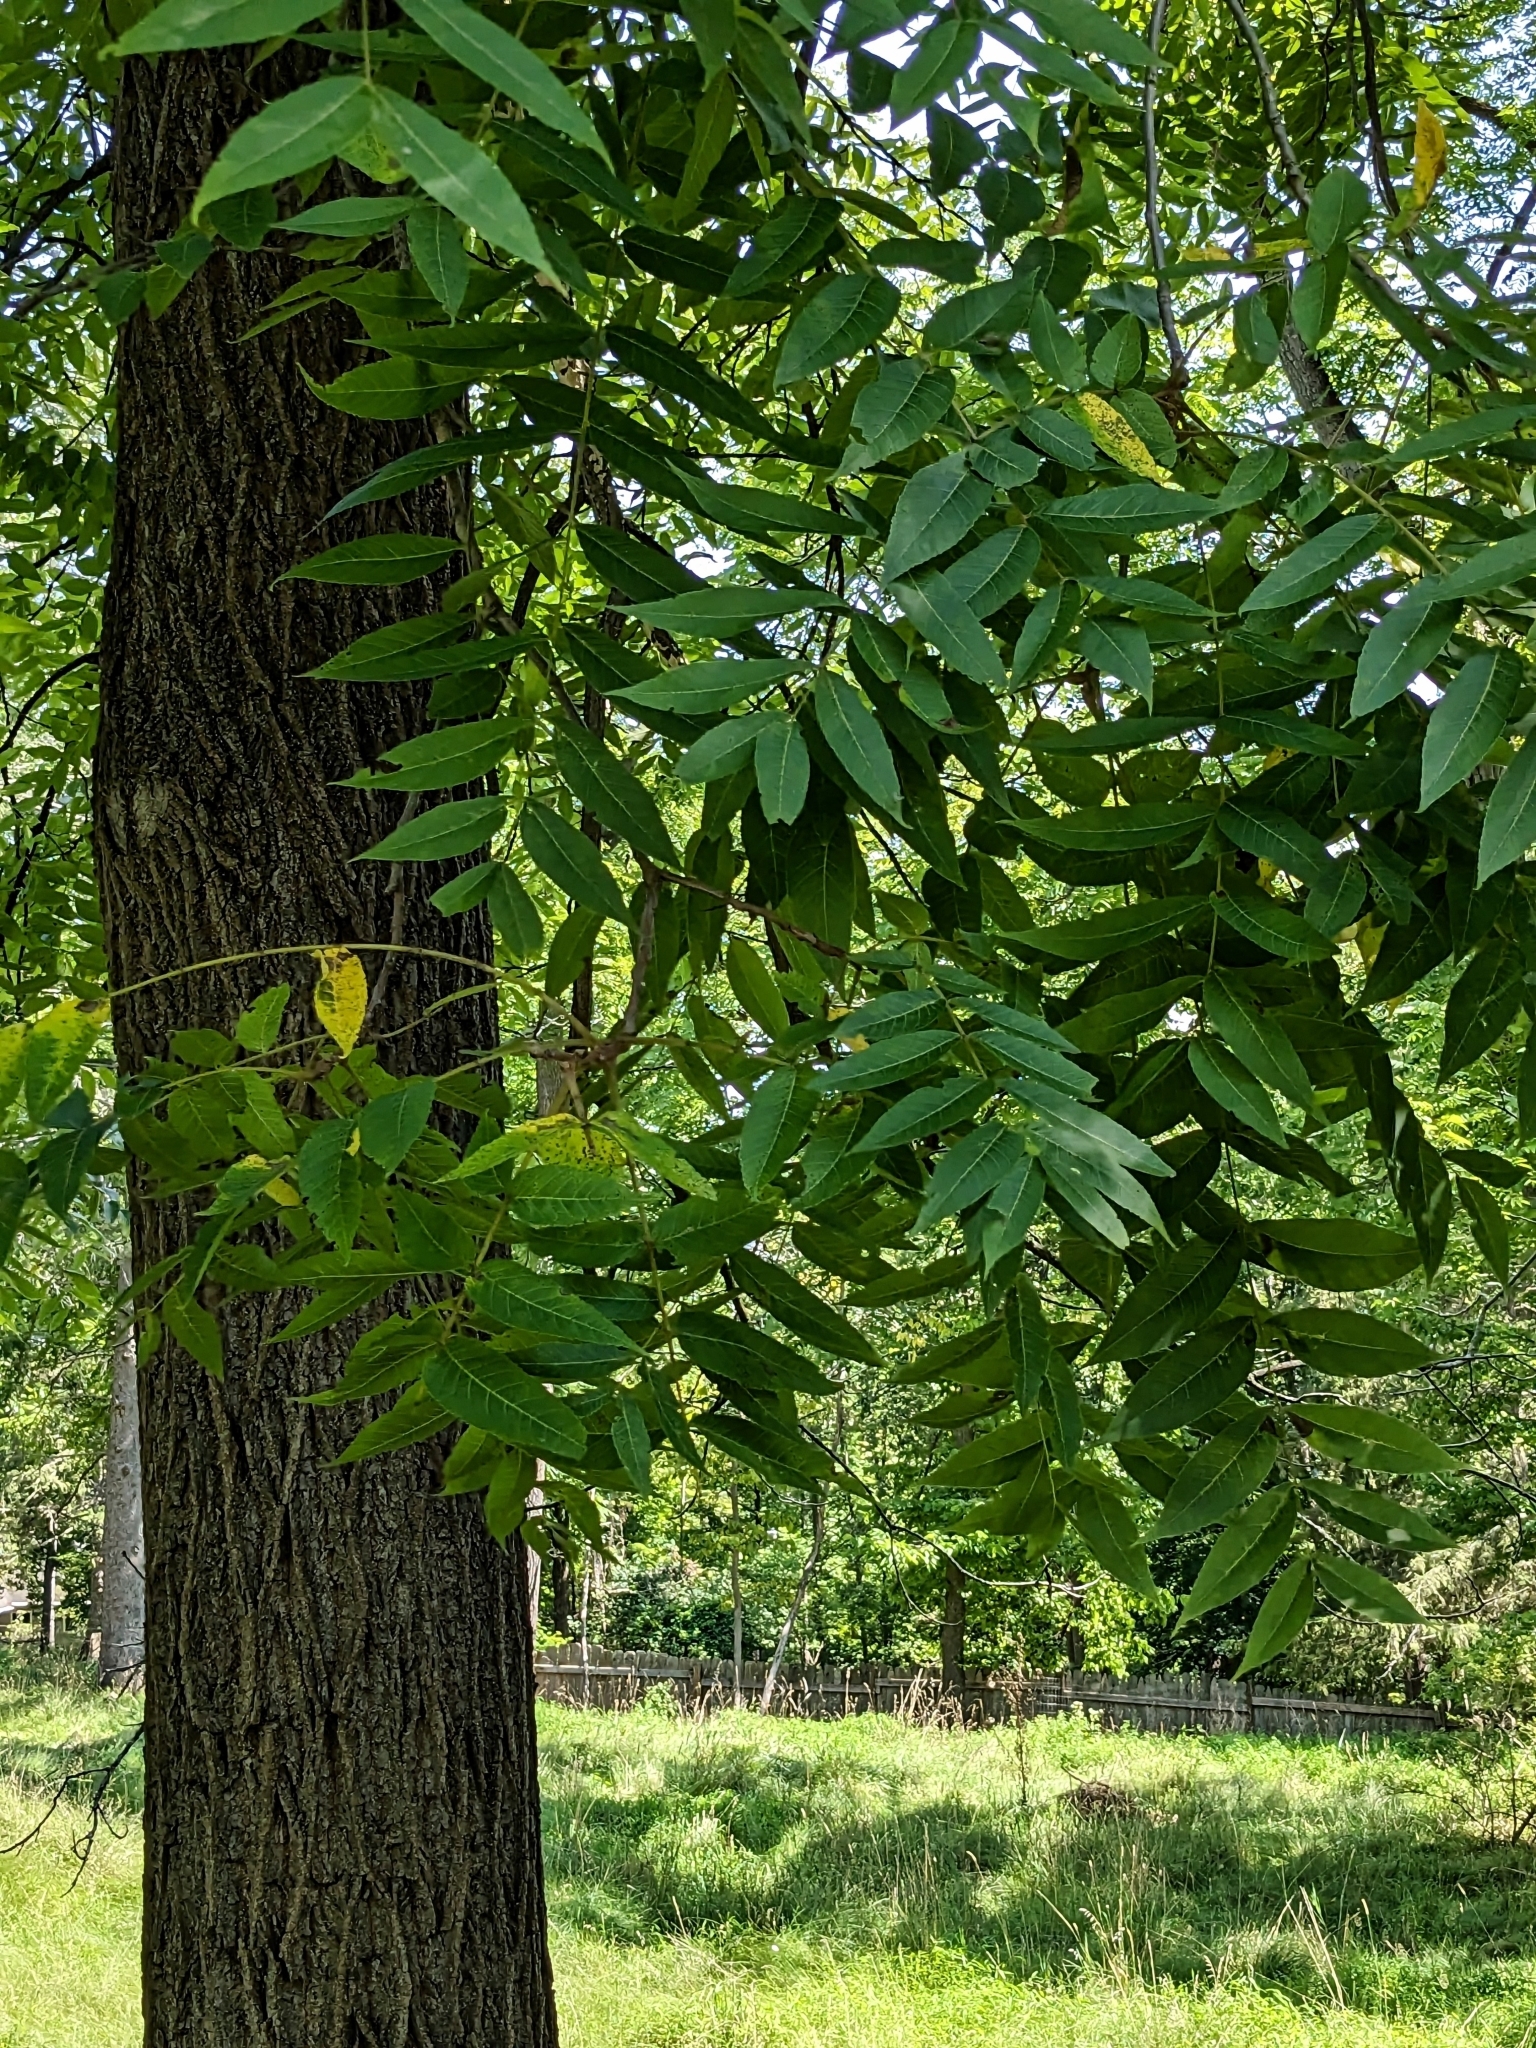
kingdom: Plantae
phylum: Tracheophyta
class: Magnoliopsida
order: Fagales
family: Juglandaceae
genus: Juglans
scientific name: Juglans nigra
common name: Black walnut
